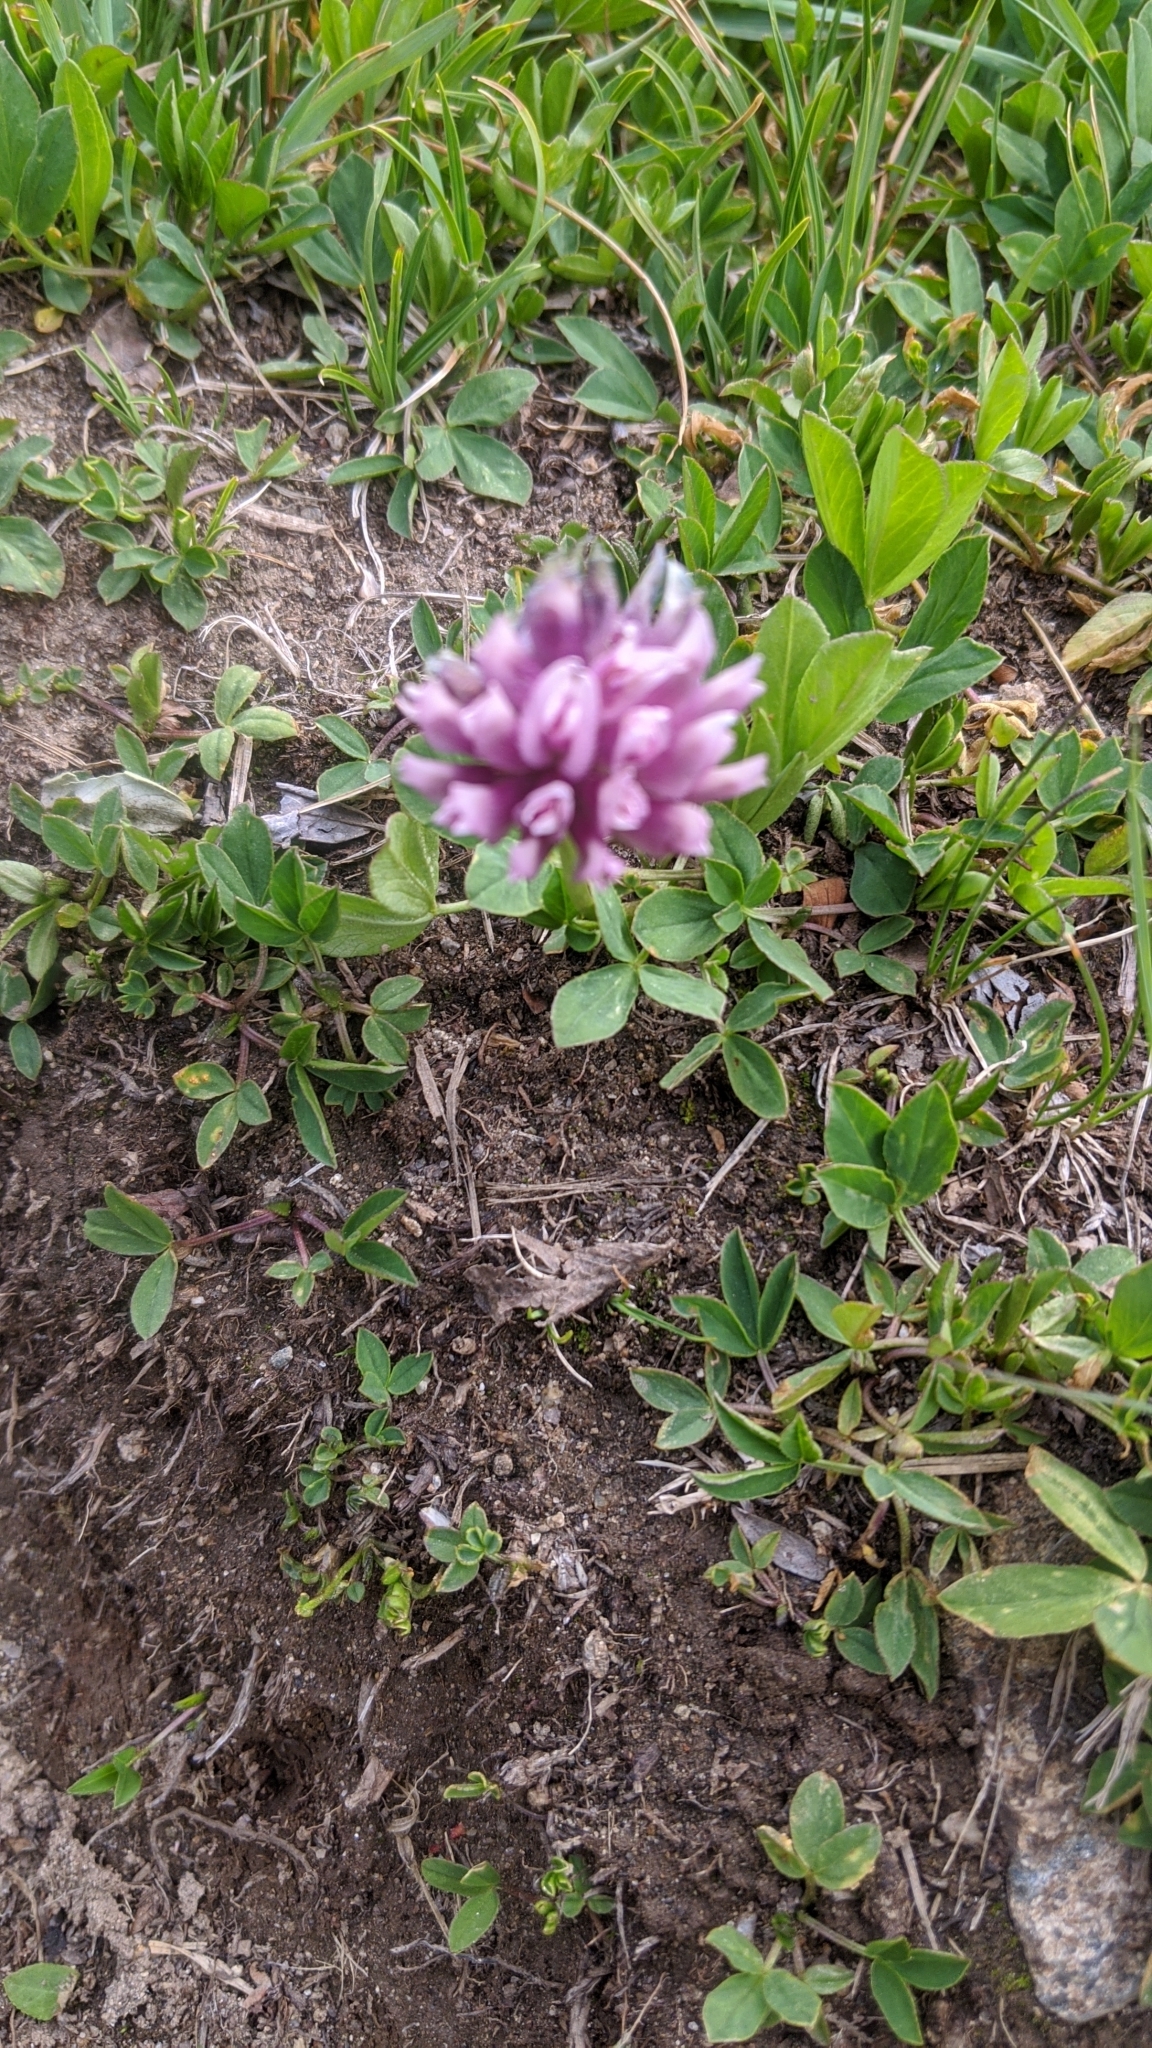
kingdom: Plantae
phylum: Tracheophyta
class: Magnoliopsida
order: Fabales
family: Fabaceae
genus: Trifolium
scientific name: Trifolium parryi
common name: Parry's clover
